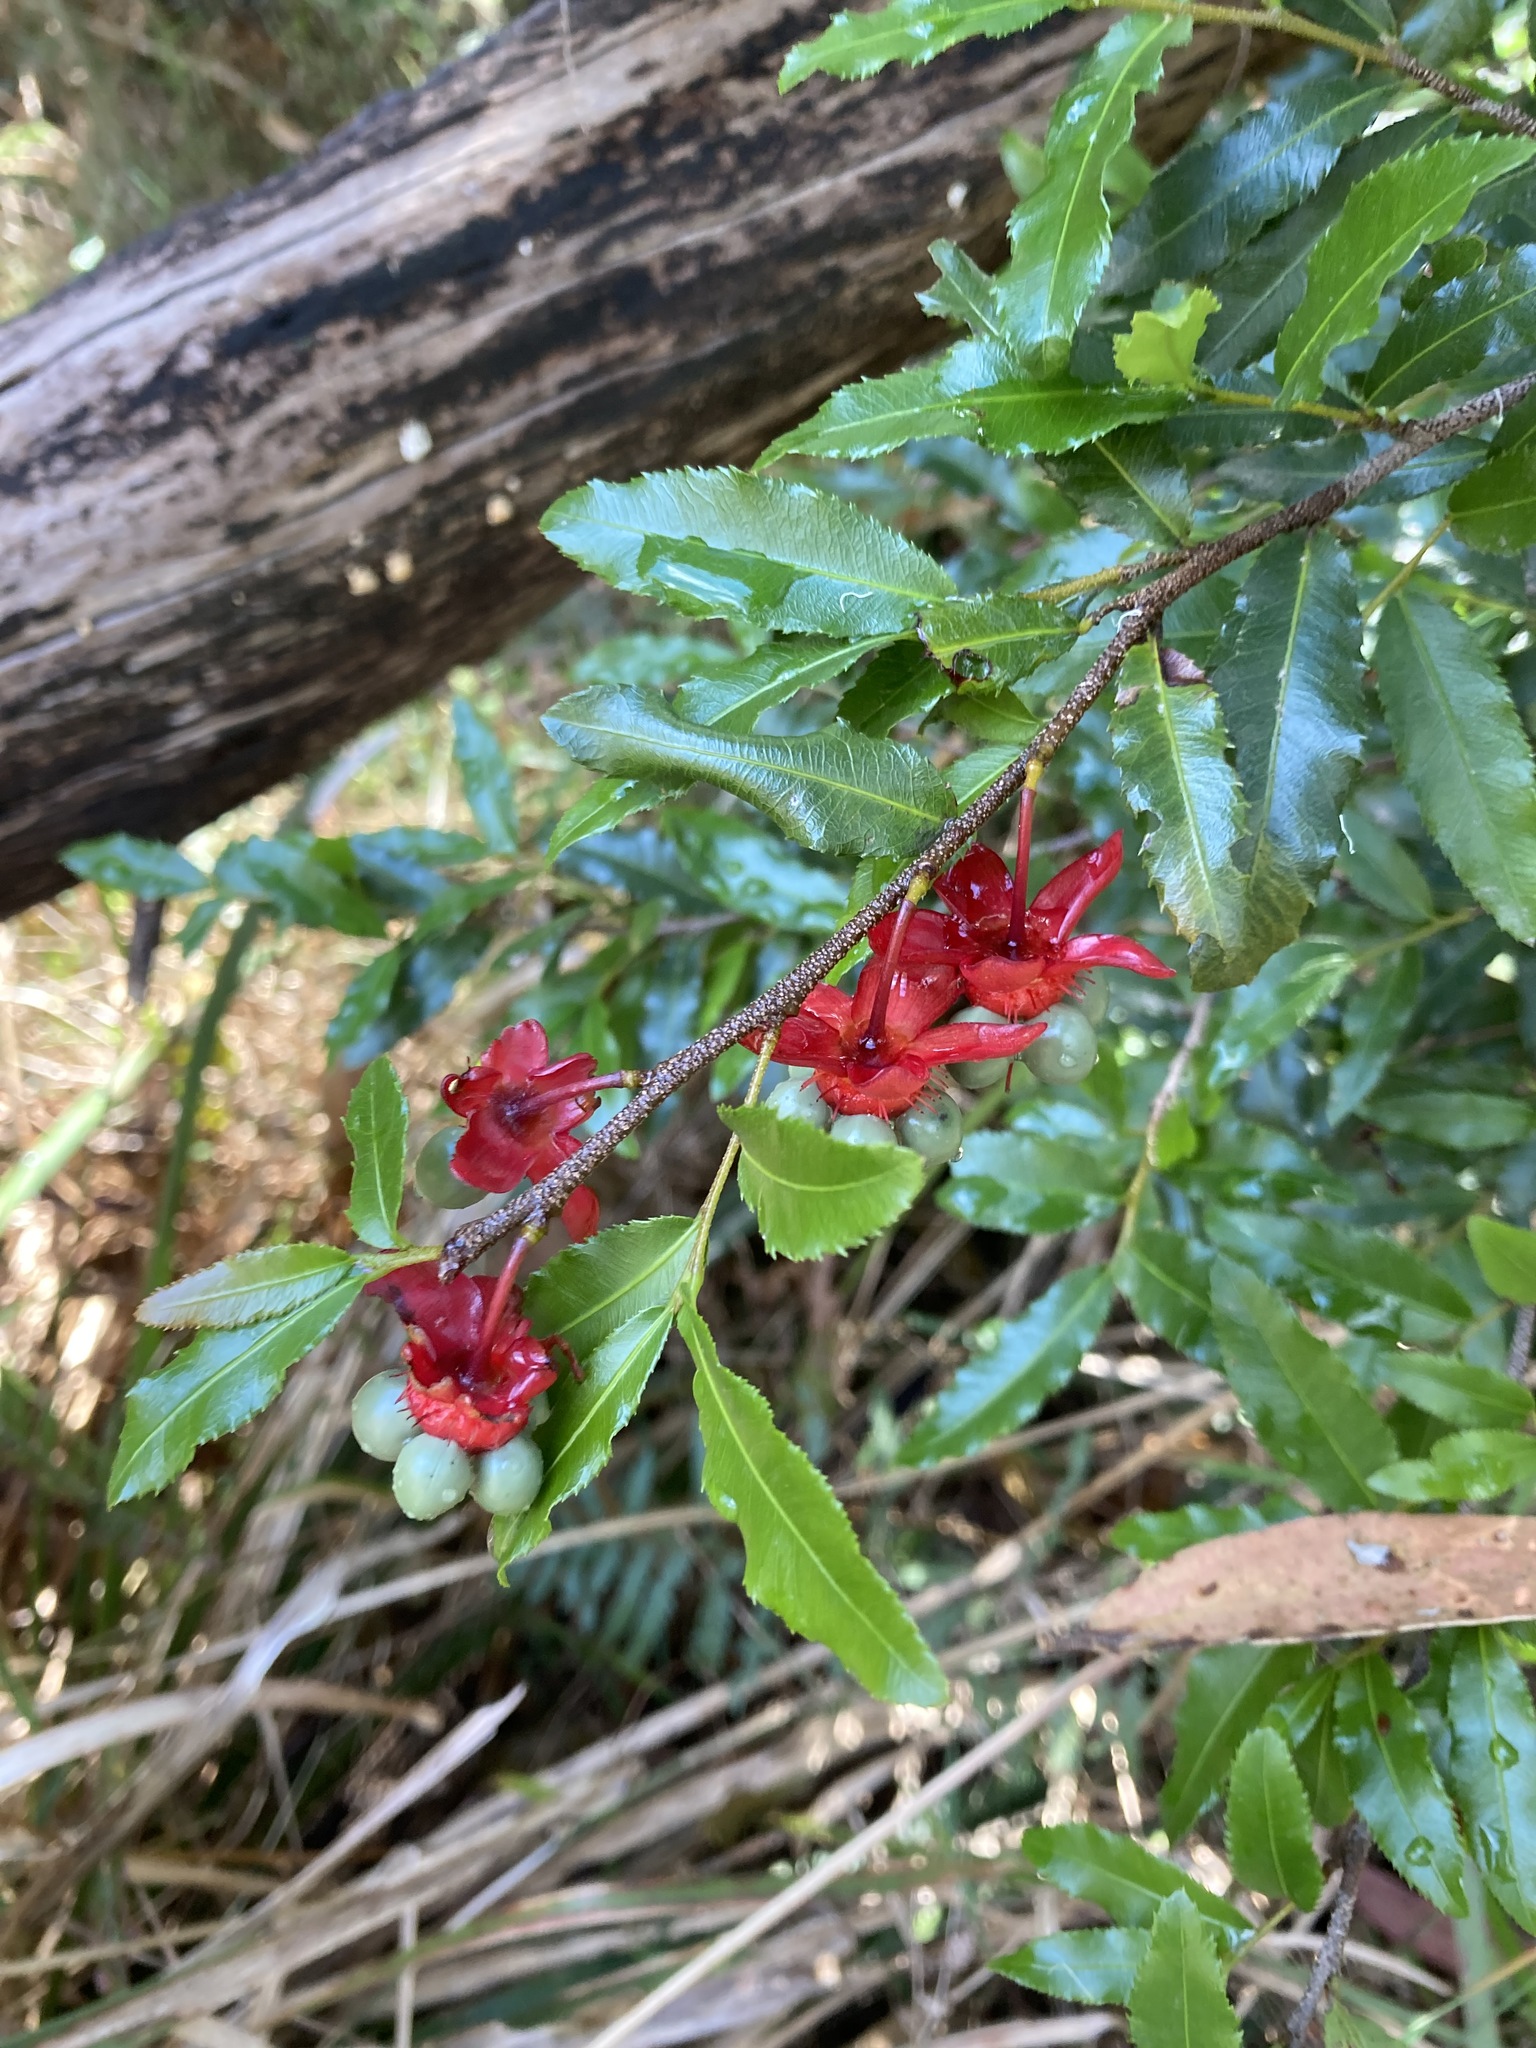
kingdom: Plantae
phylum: Tracheophyta
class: Magnoliopsida
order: Malpighiales
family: Ochnaceae
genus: Ochna
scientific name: Ochna serrulata
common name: Mickey mouse plant
